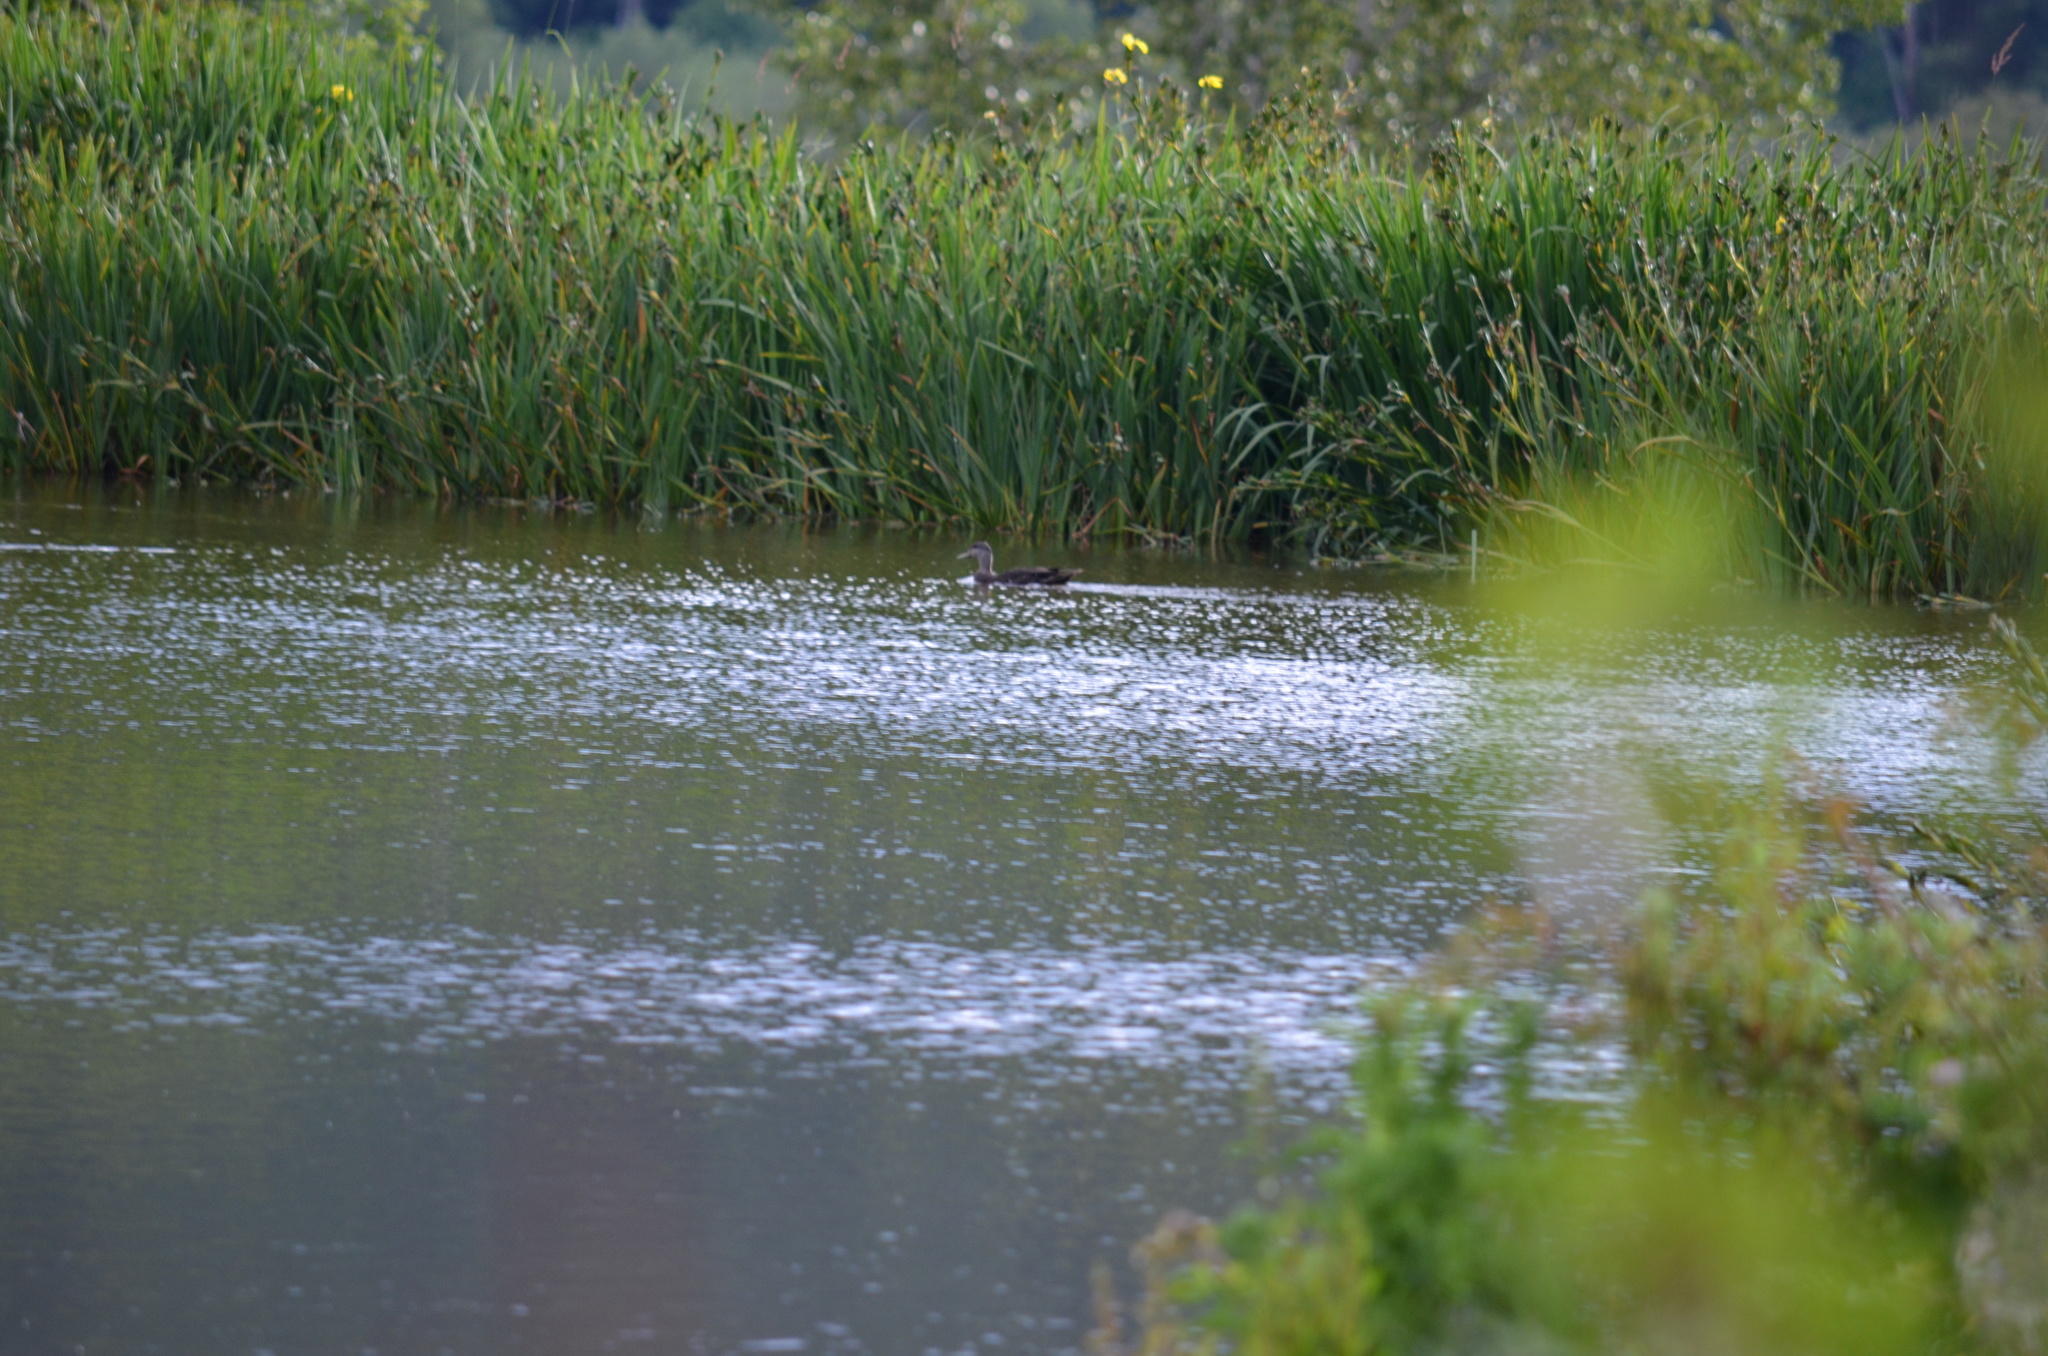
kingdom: Animalia
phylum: Chordata
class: Aves
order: Anseriformes
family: Anatidae
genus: Anas
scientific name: Anas rubripes
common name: American black duck
